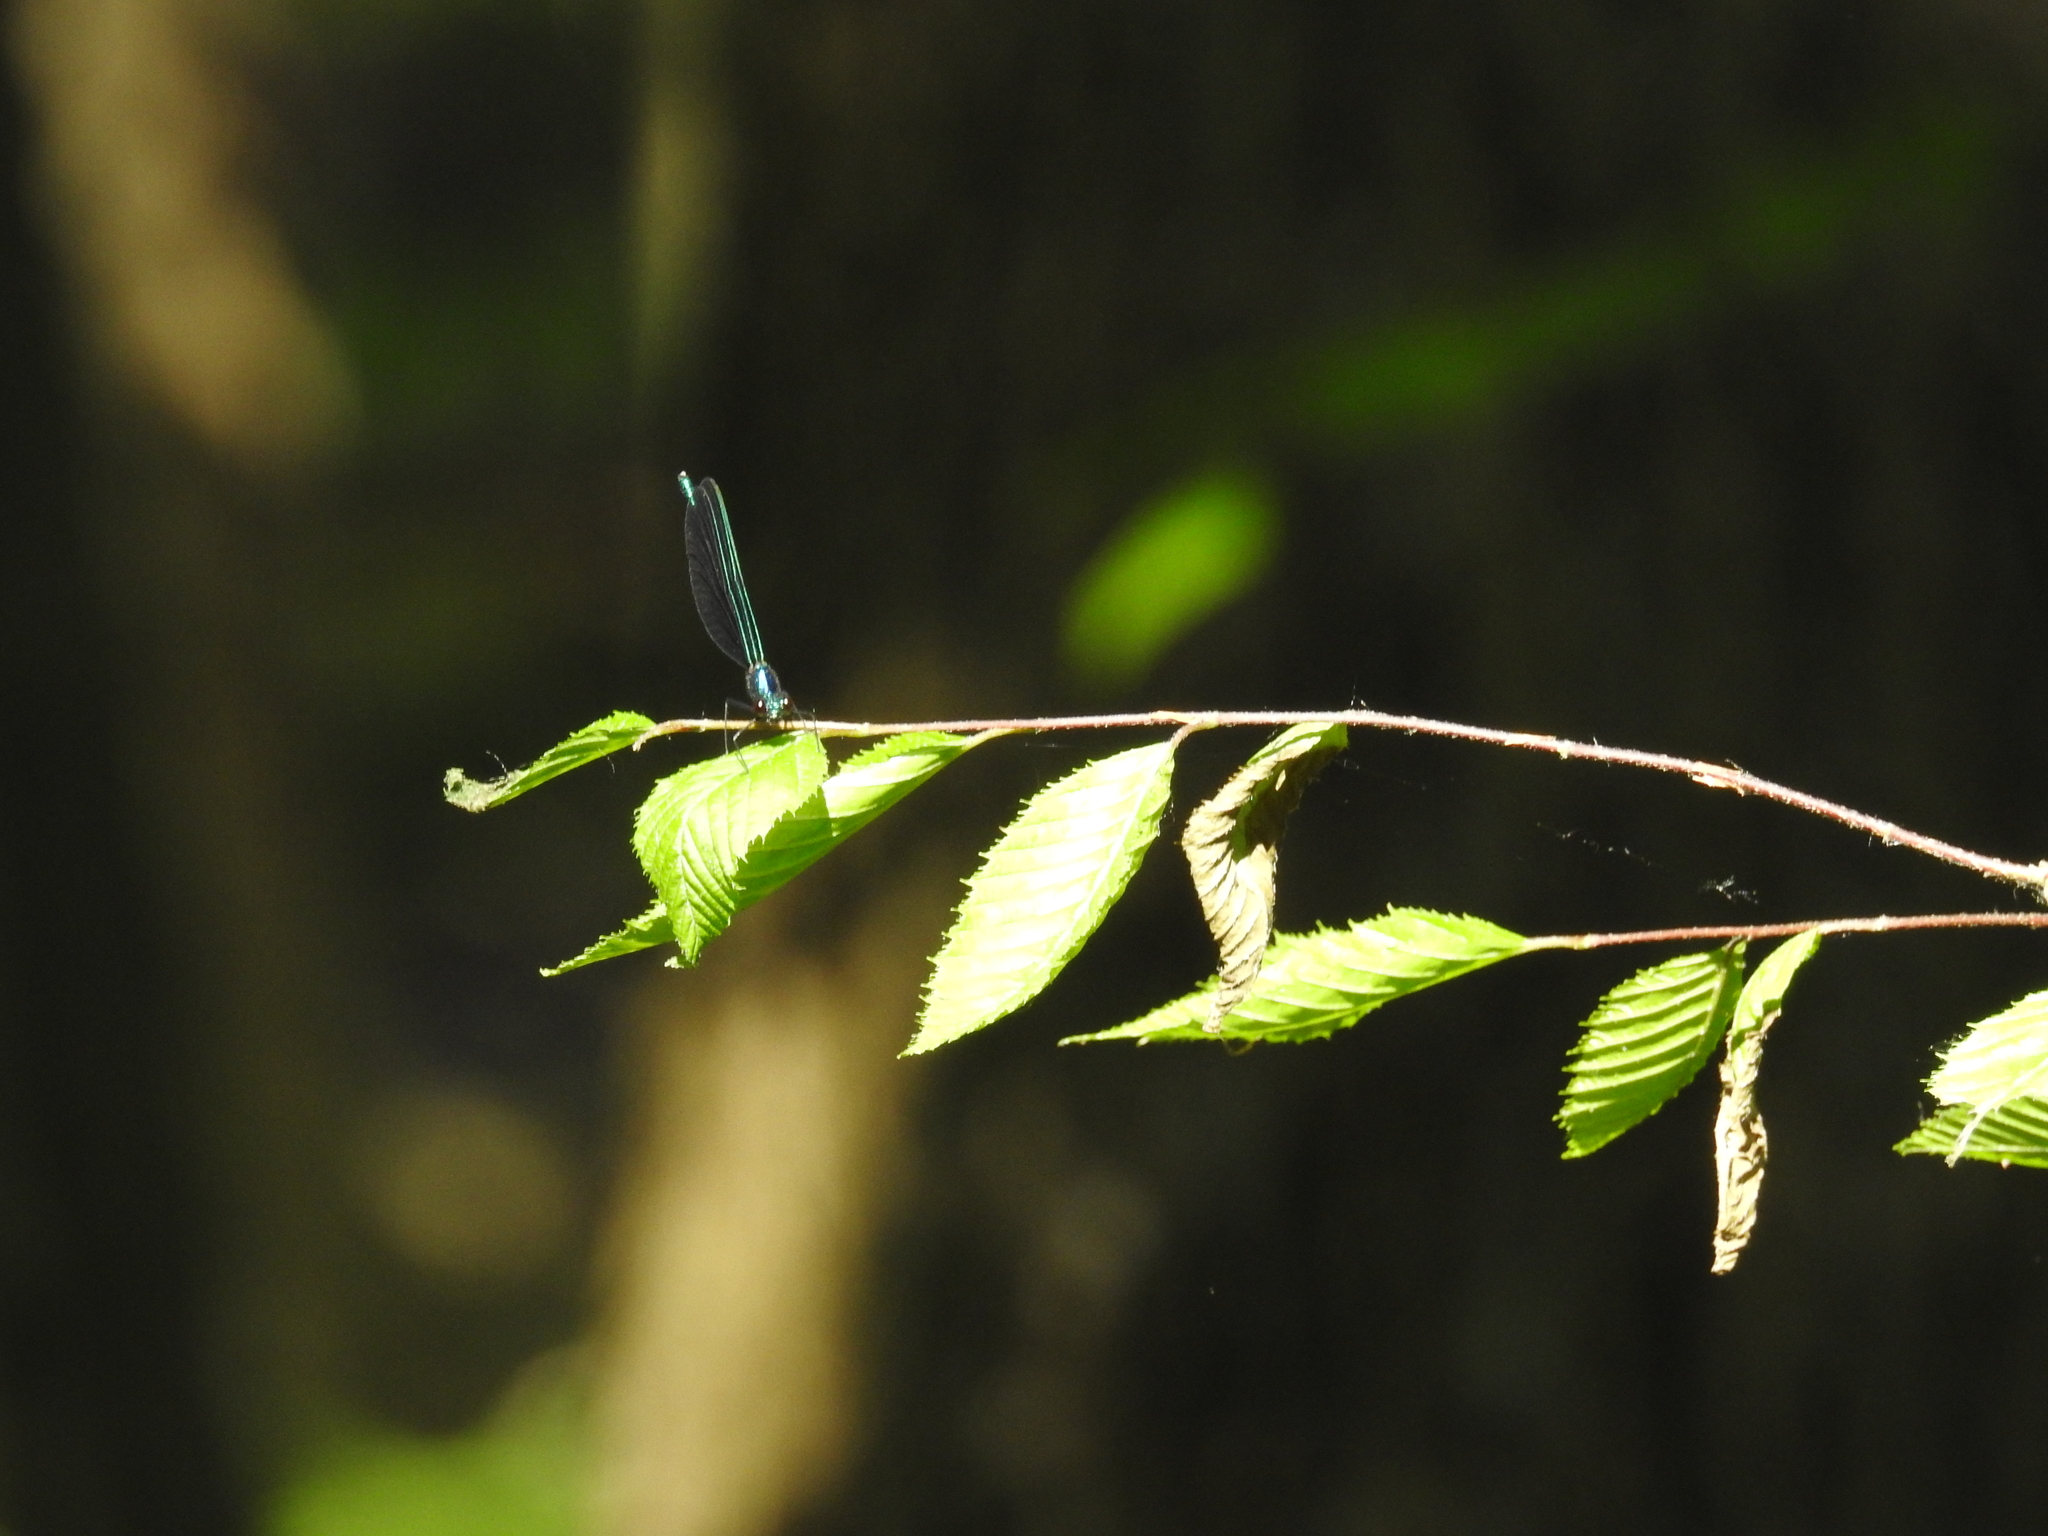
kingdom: Animalia
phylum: Arthropoda
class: Insecta
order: Odonata
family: Calopterygidae
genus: Calopteryx
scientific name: Calopteryx maculata
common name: Ebony jewelwing
